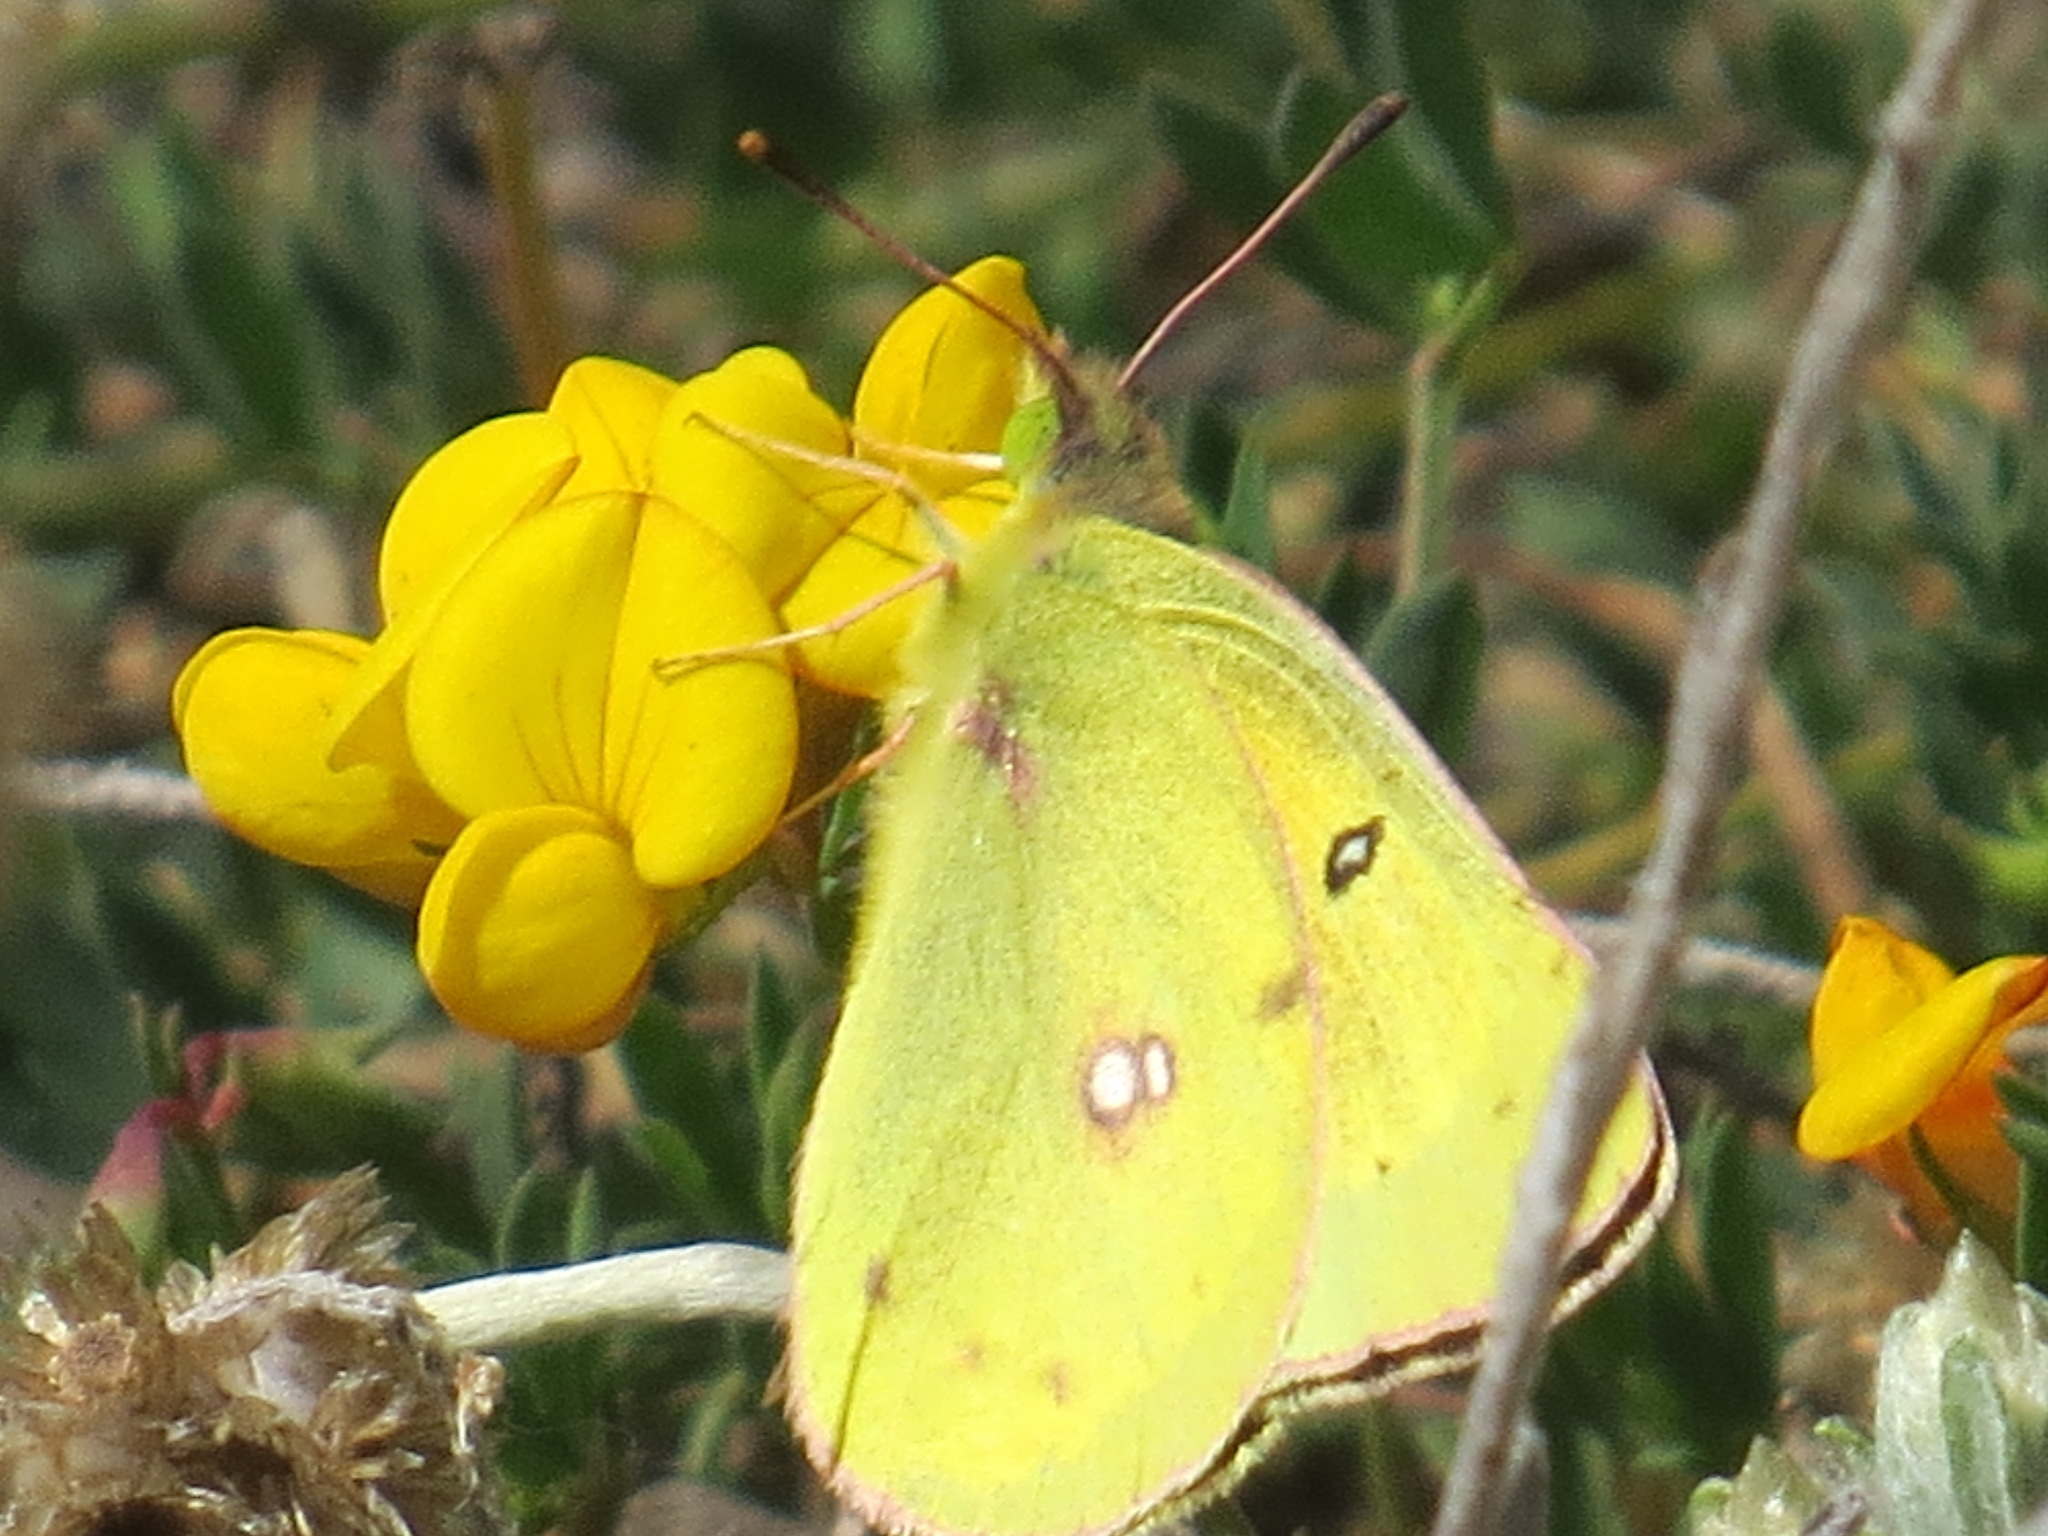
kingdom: Animalia
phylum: Arthropoda
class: Insecta
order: Lepidoptera
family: Pieridae
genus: Colias
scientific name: Colias eurytheme
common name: Alfalfa butterfly
